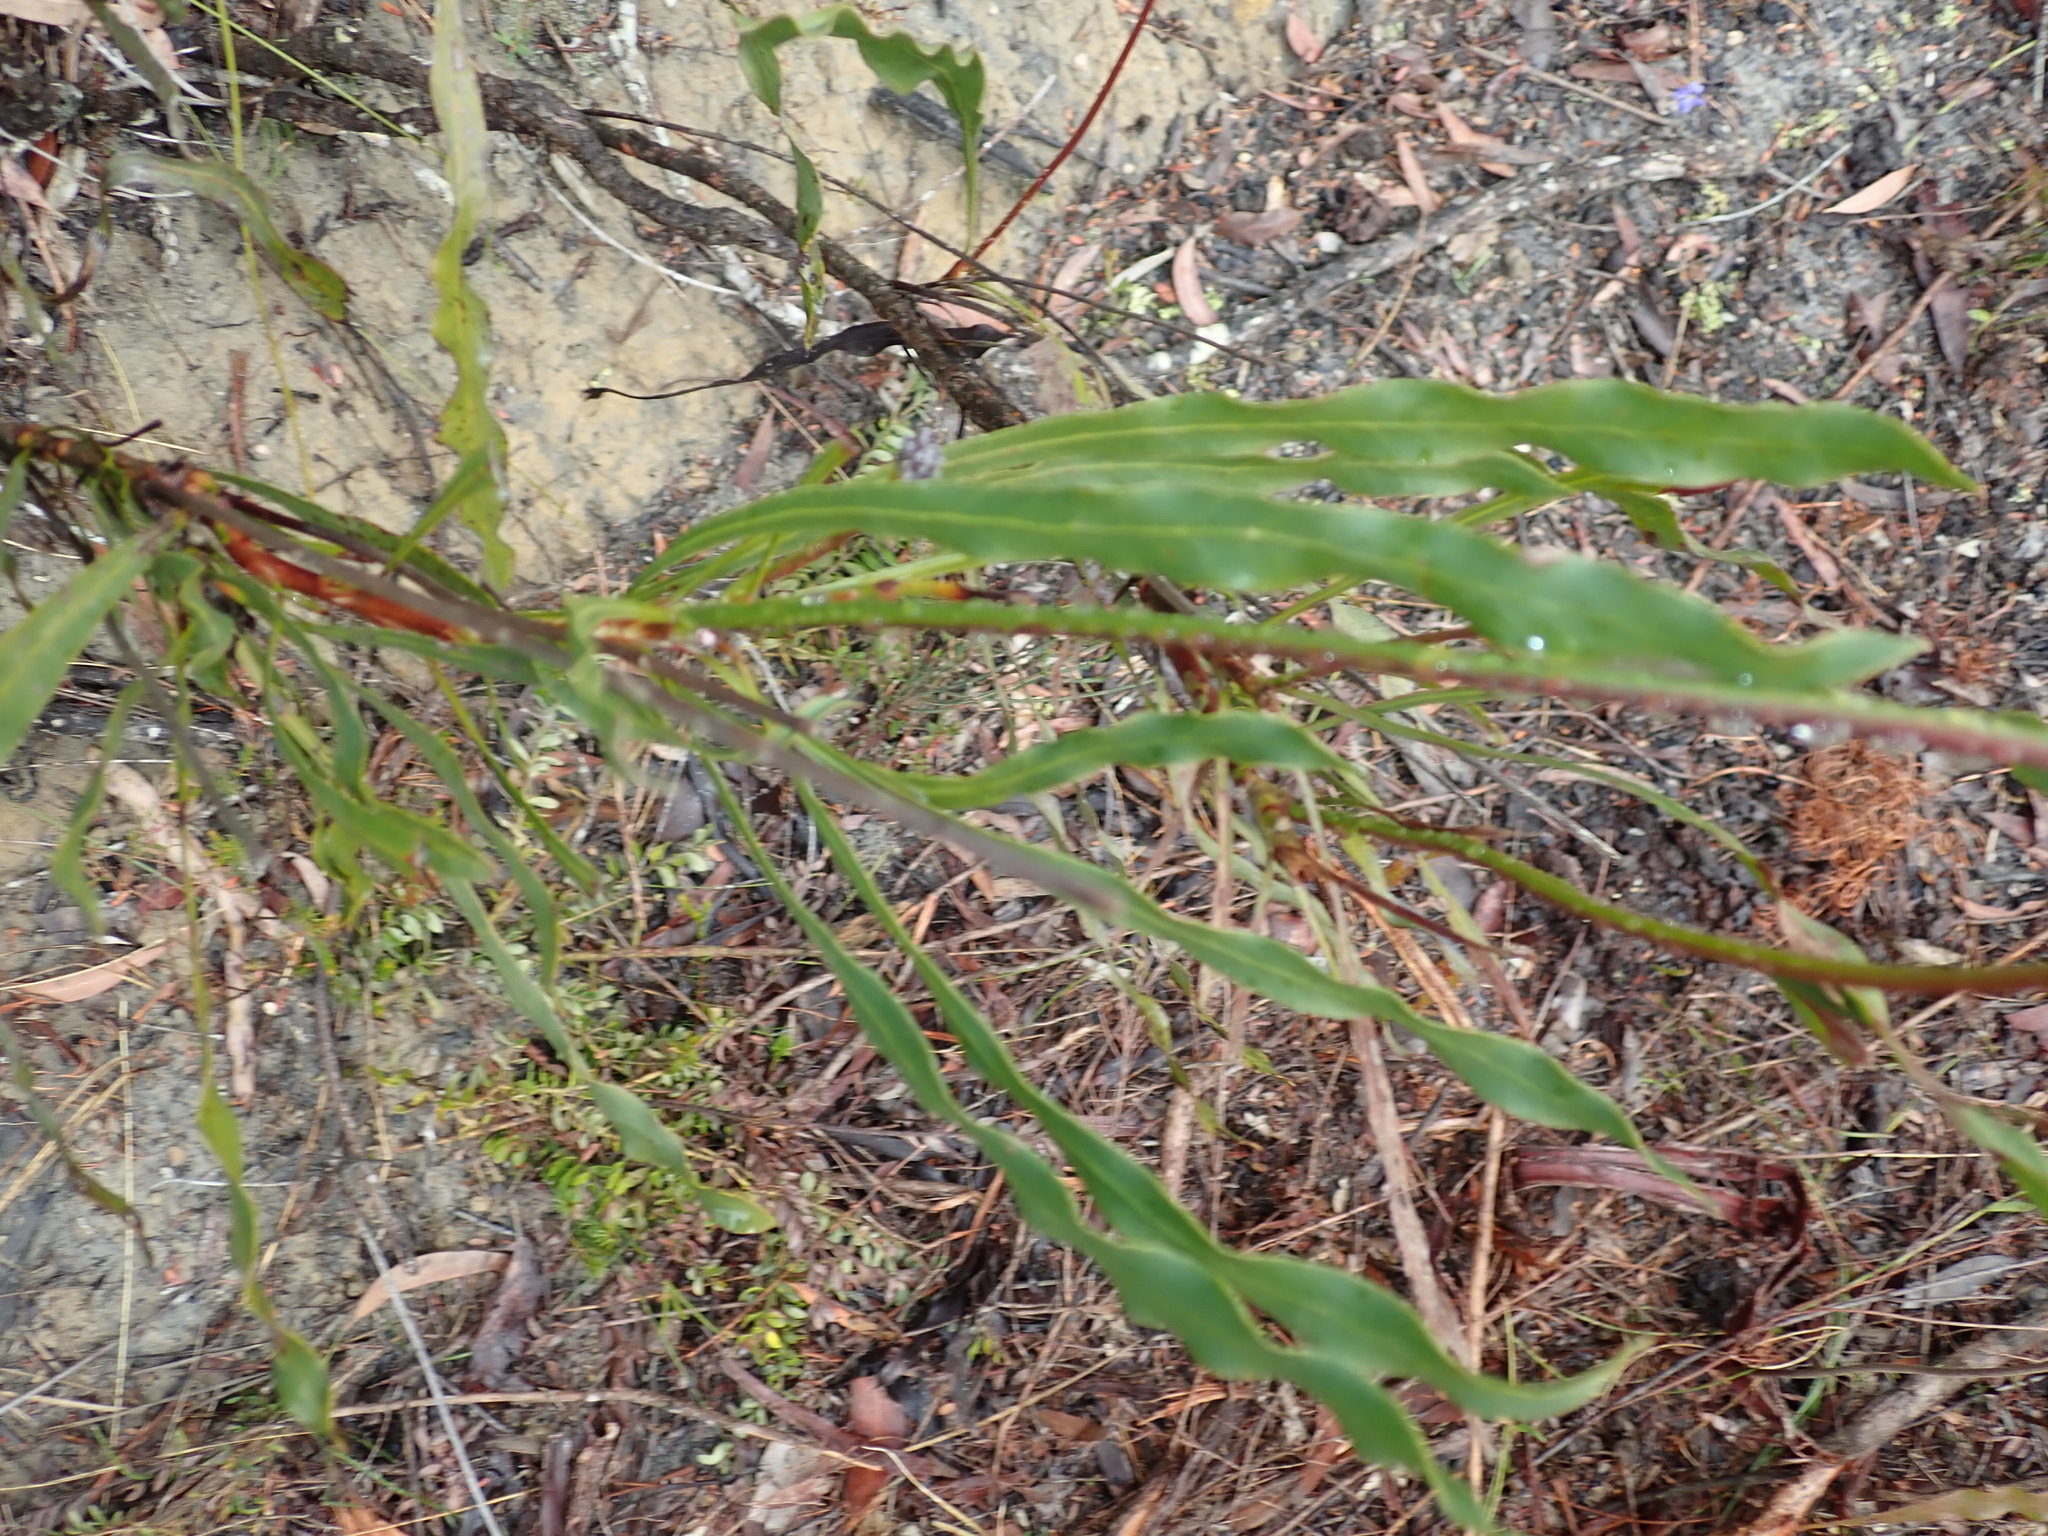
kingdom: Plantae
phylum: Tracheophyta
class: Magnoliopsida
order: Proteales
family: Proteaceae
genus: Conospermum
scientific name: Conospermum longifolium
